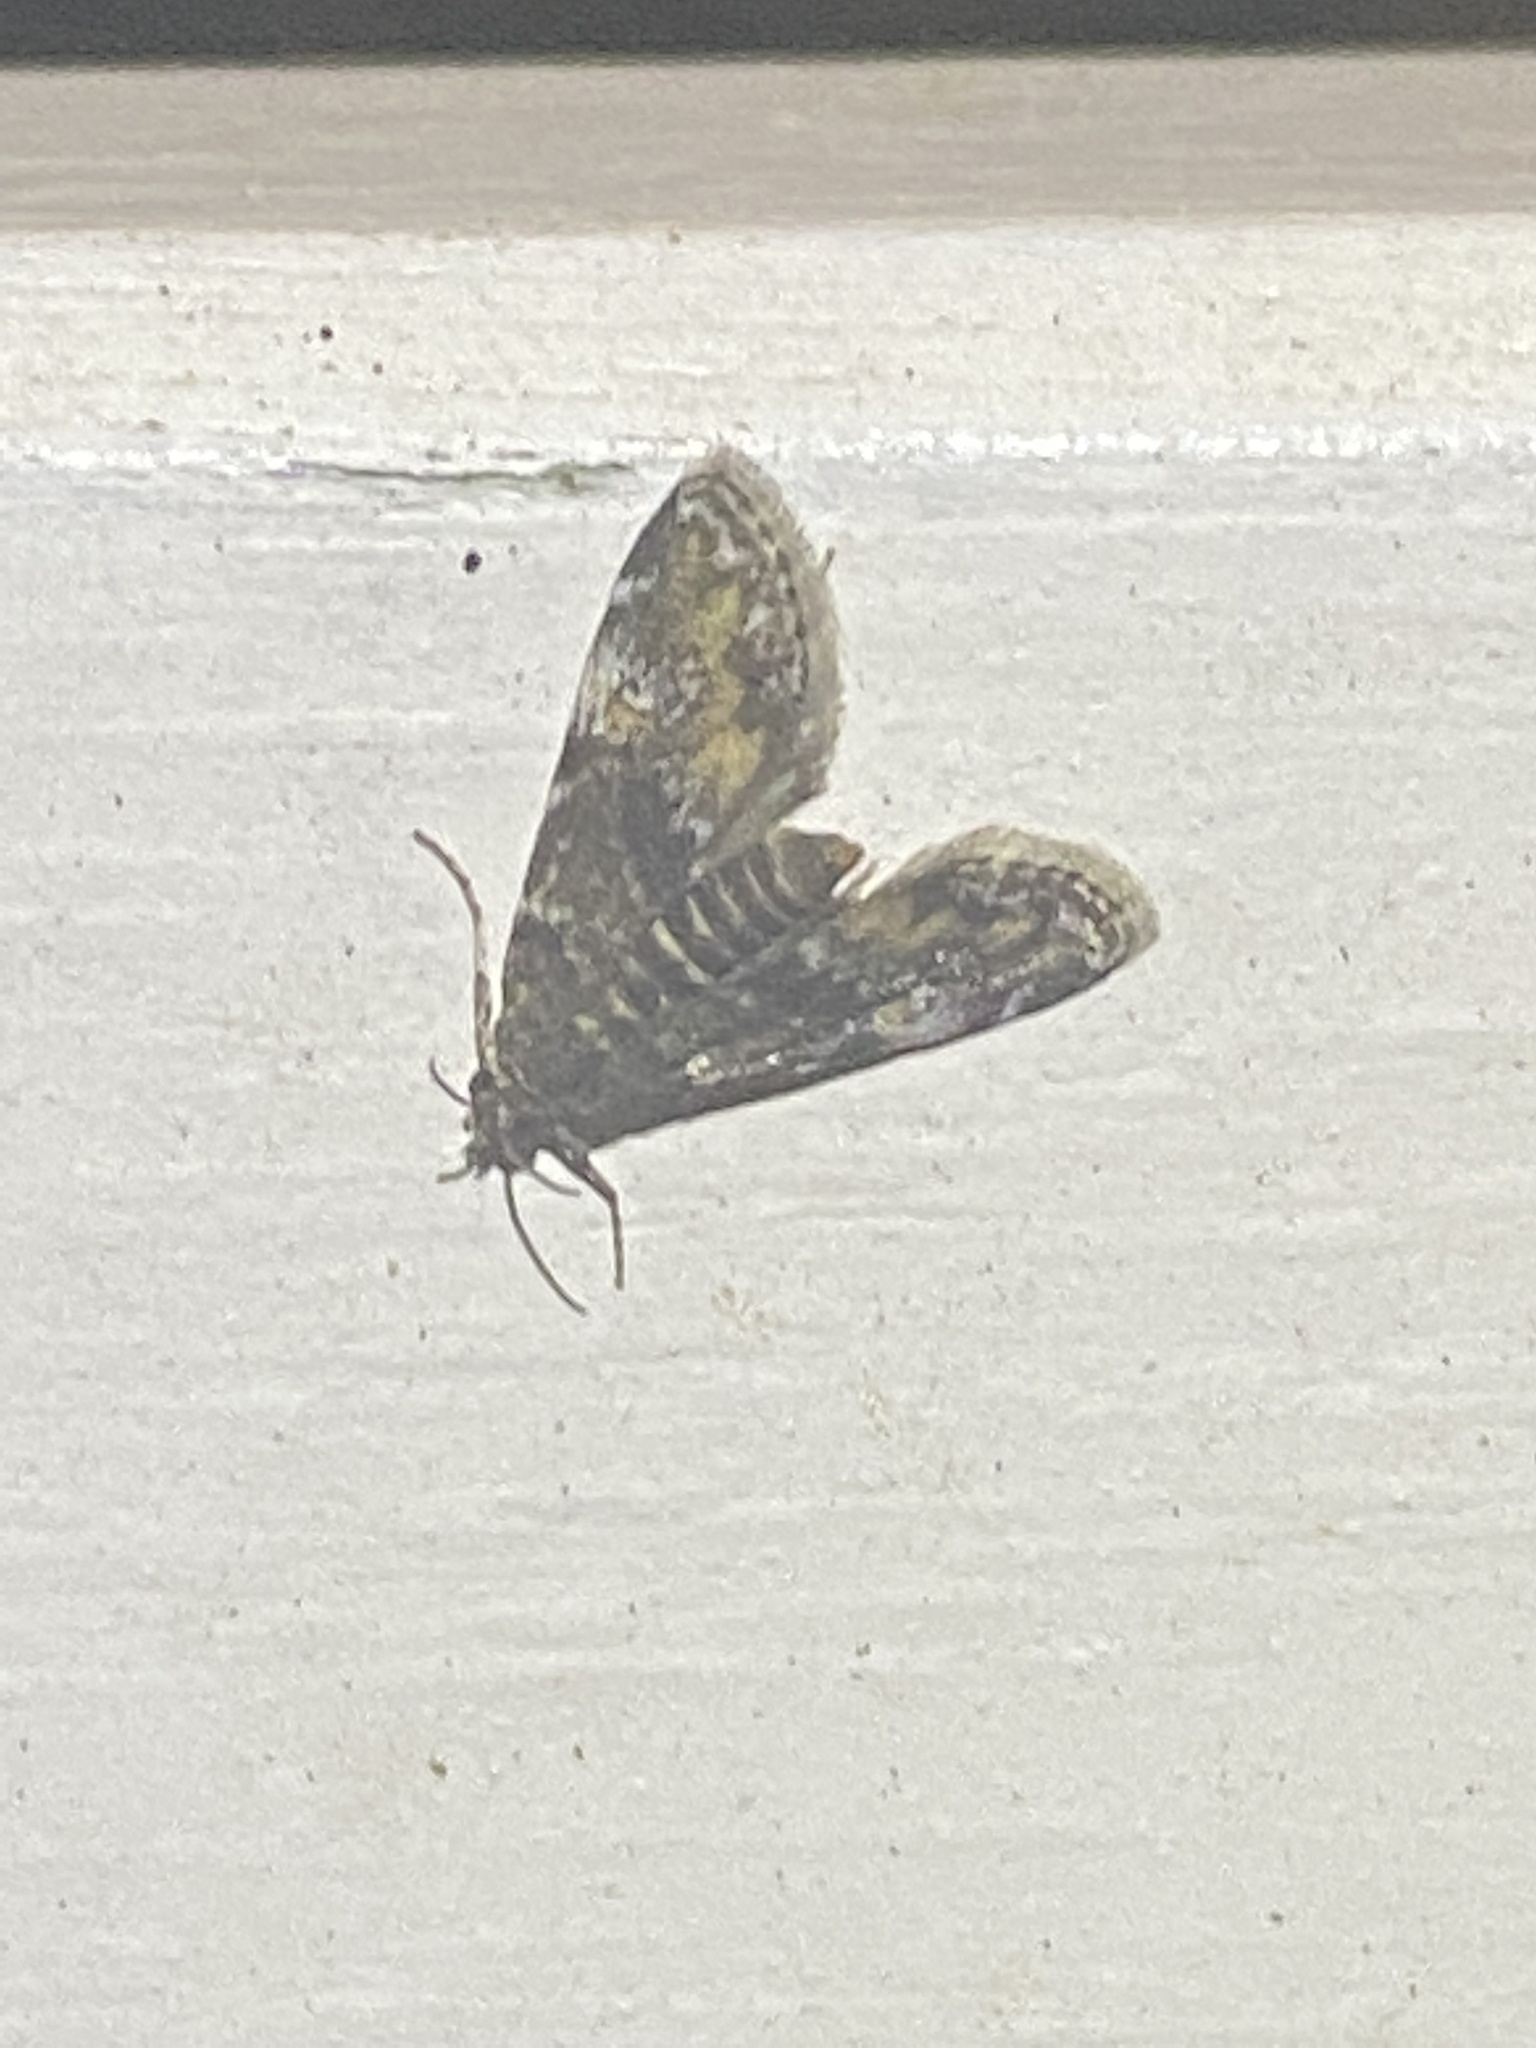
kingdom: Animalia
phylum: Arthropoda
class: Insecta
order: Lepidoptera
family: Crambidae
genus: Elophila
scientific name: Elophila obliteralis
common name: Waterlily leafcutter moth
